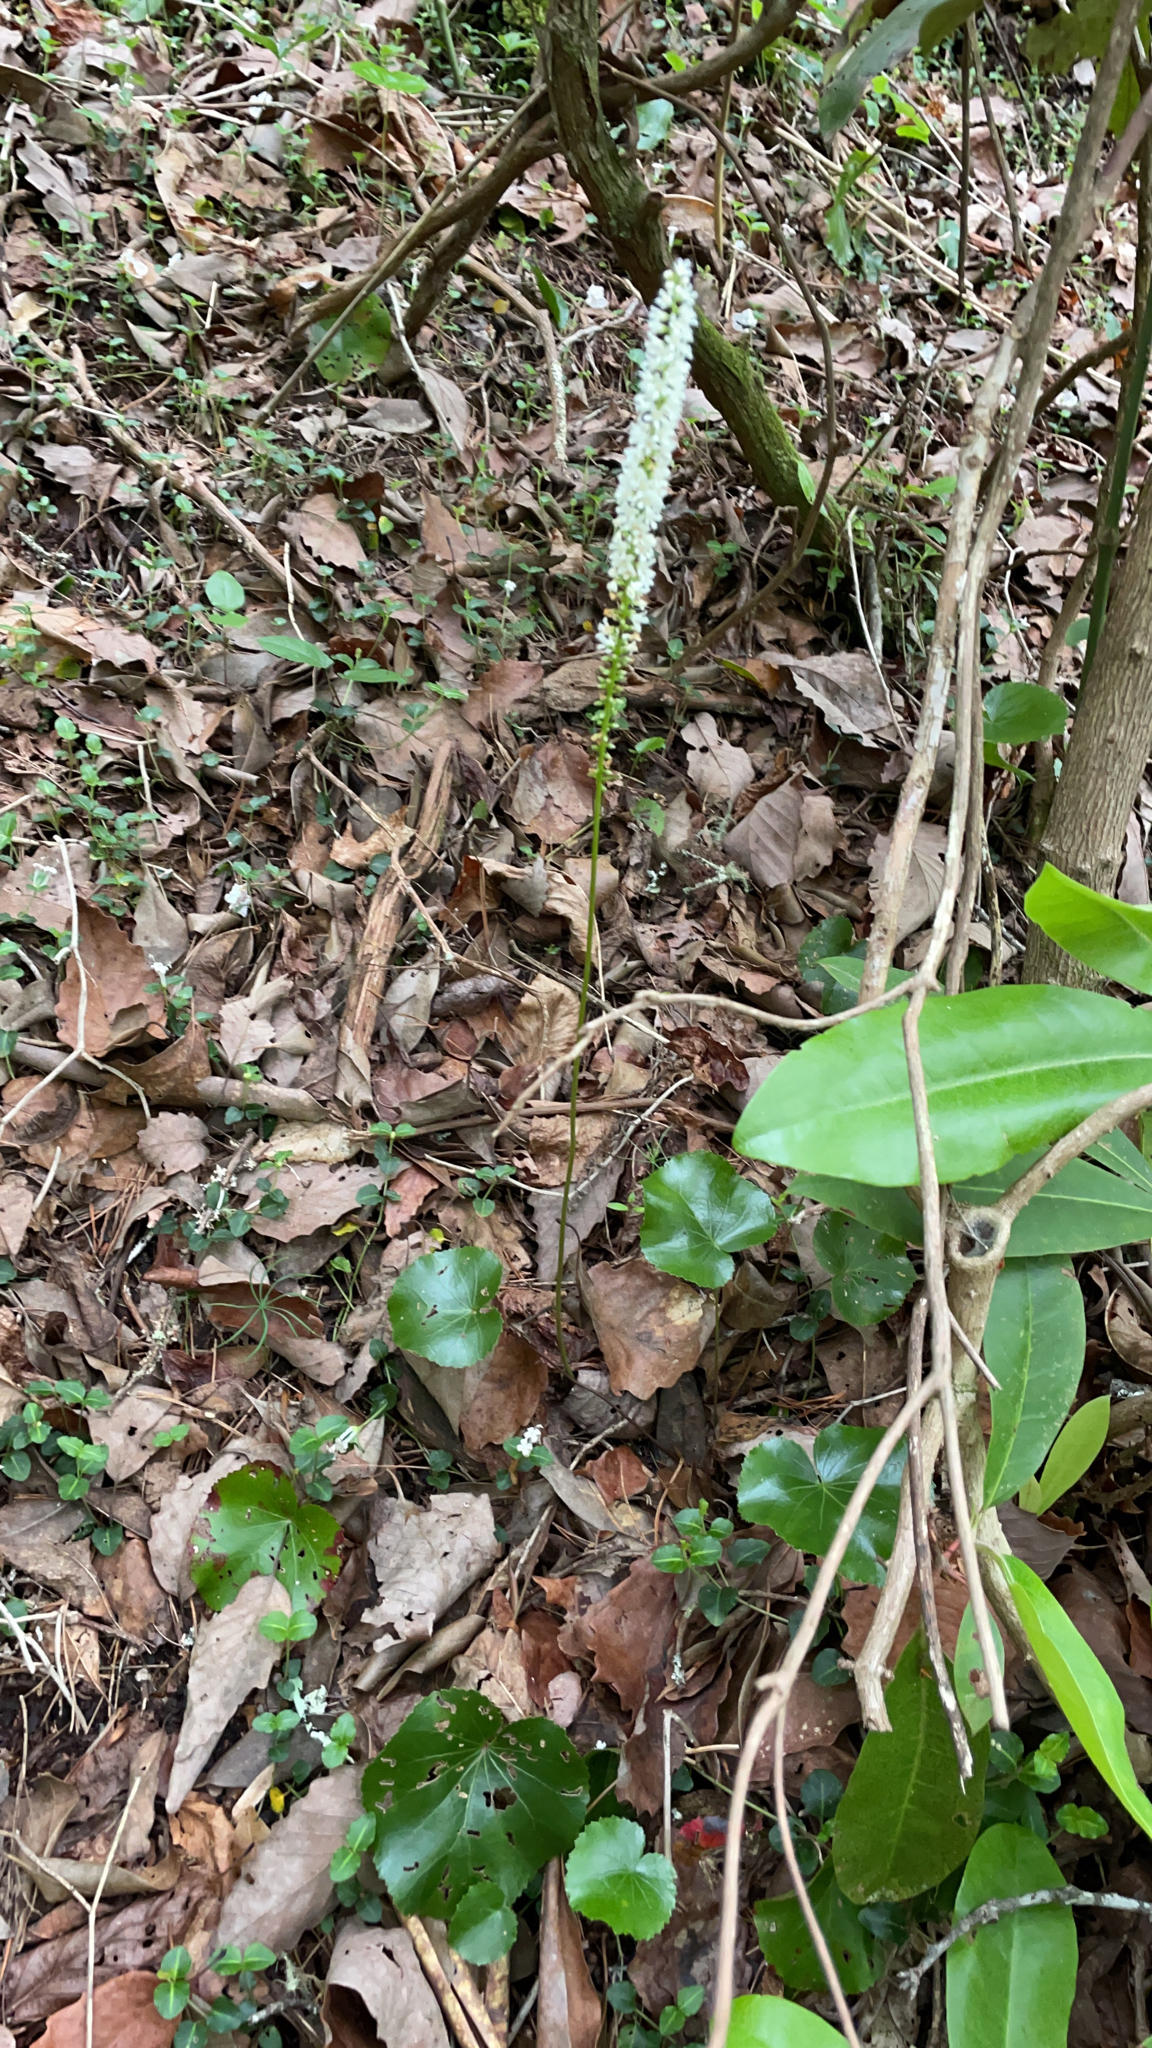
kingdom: Plantae
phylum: Tracheophyta
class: Magnoliopsida
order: Ericales
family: Diapensiaceae
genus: Galax
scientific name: Galax urceolata
